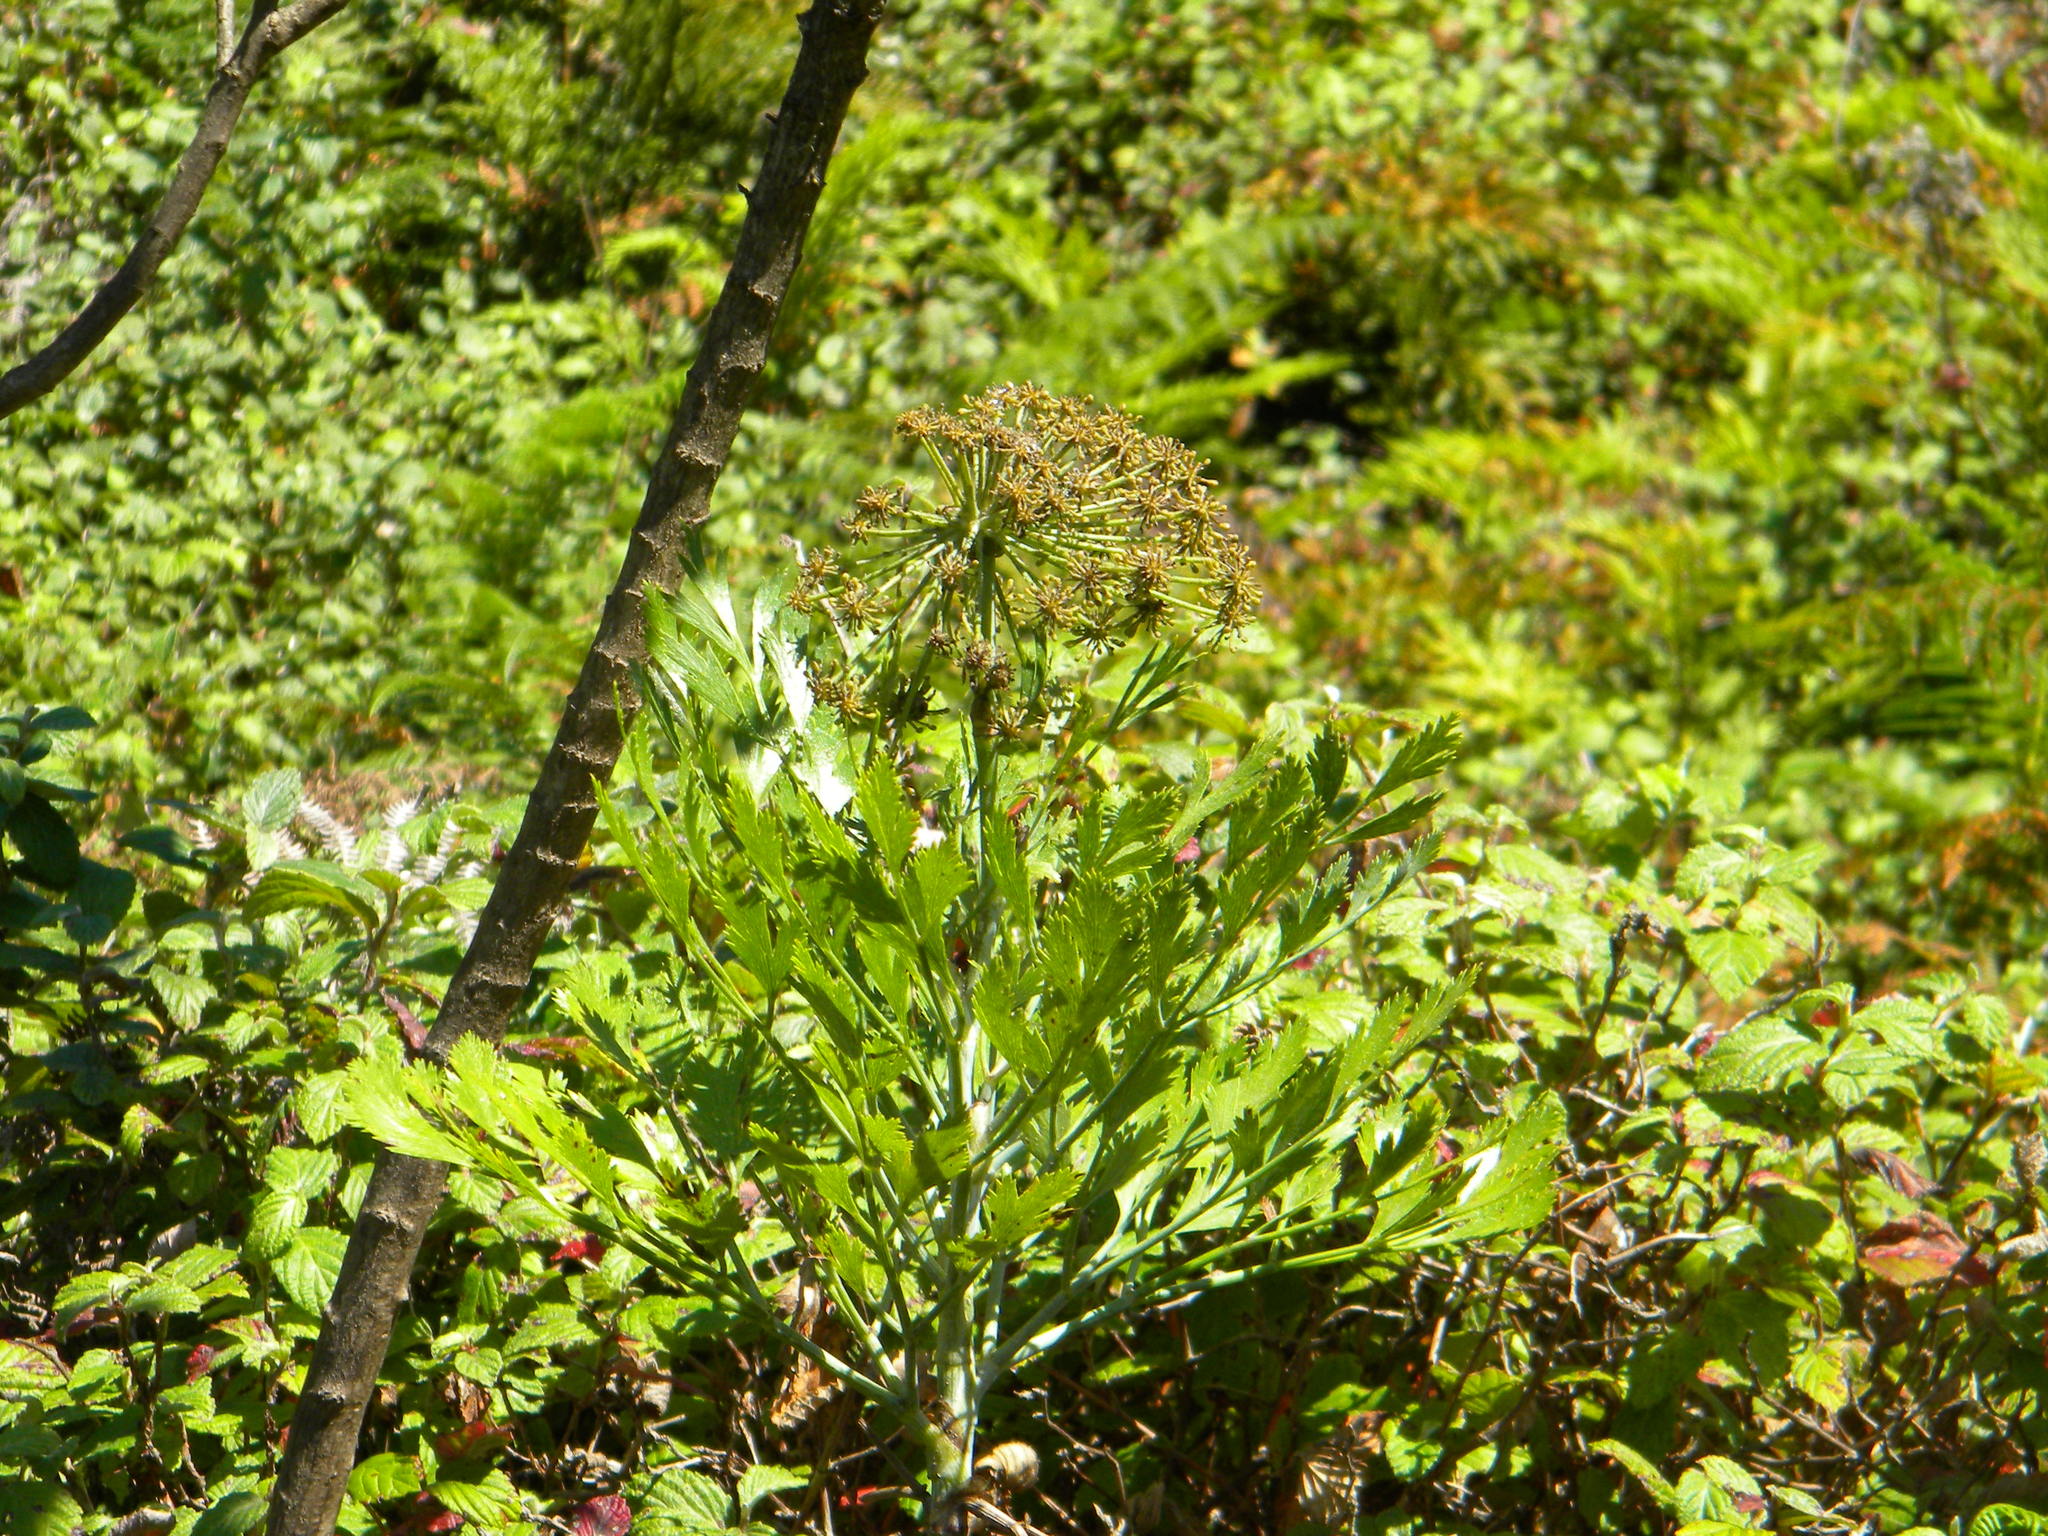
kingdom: Plantae
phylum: Tracheophyta
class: Magnoliopsida
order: Apiales
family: Apiaceae
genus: Notobubon
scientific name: Notobubon galbanum
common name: Blisterbush
